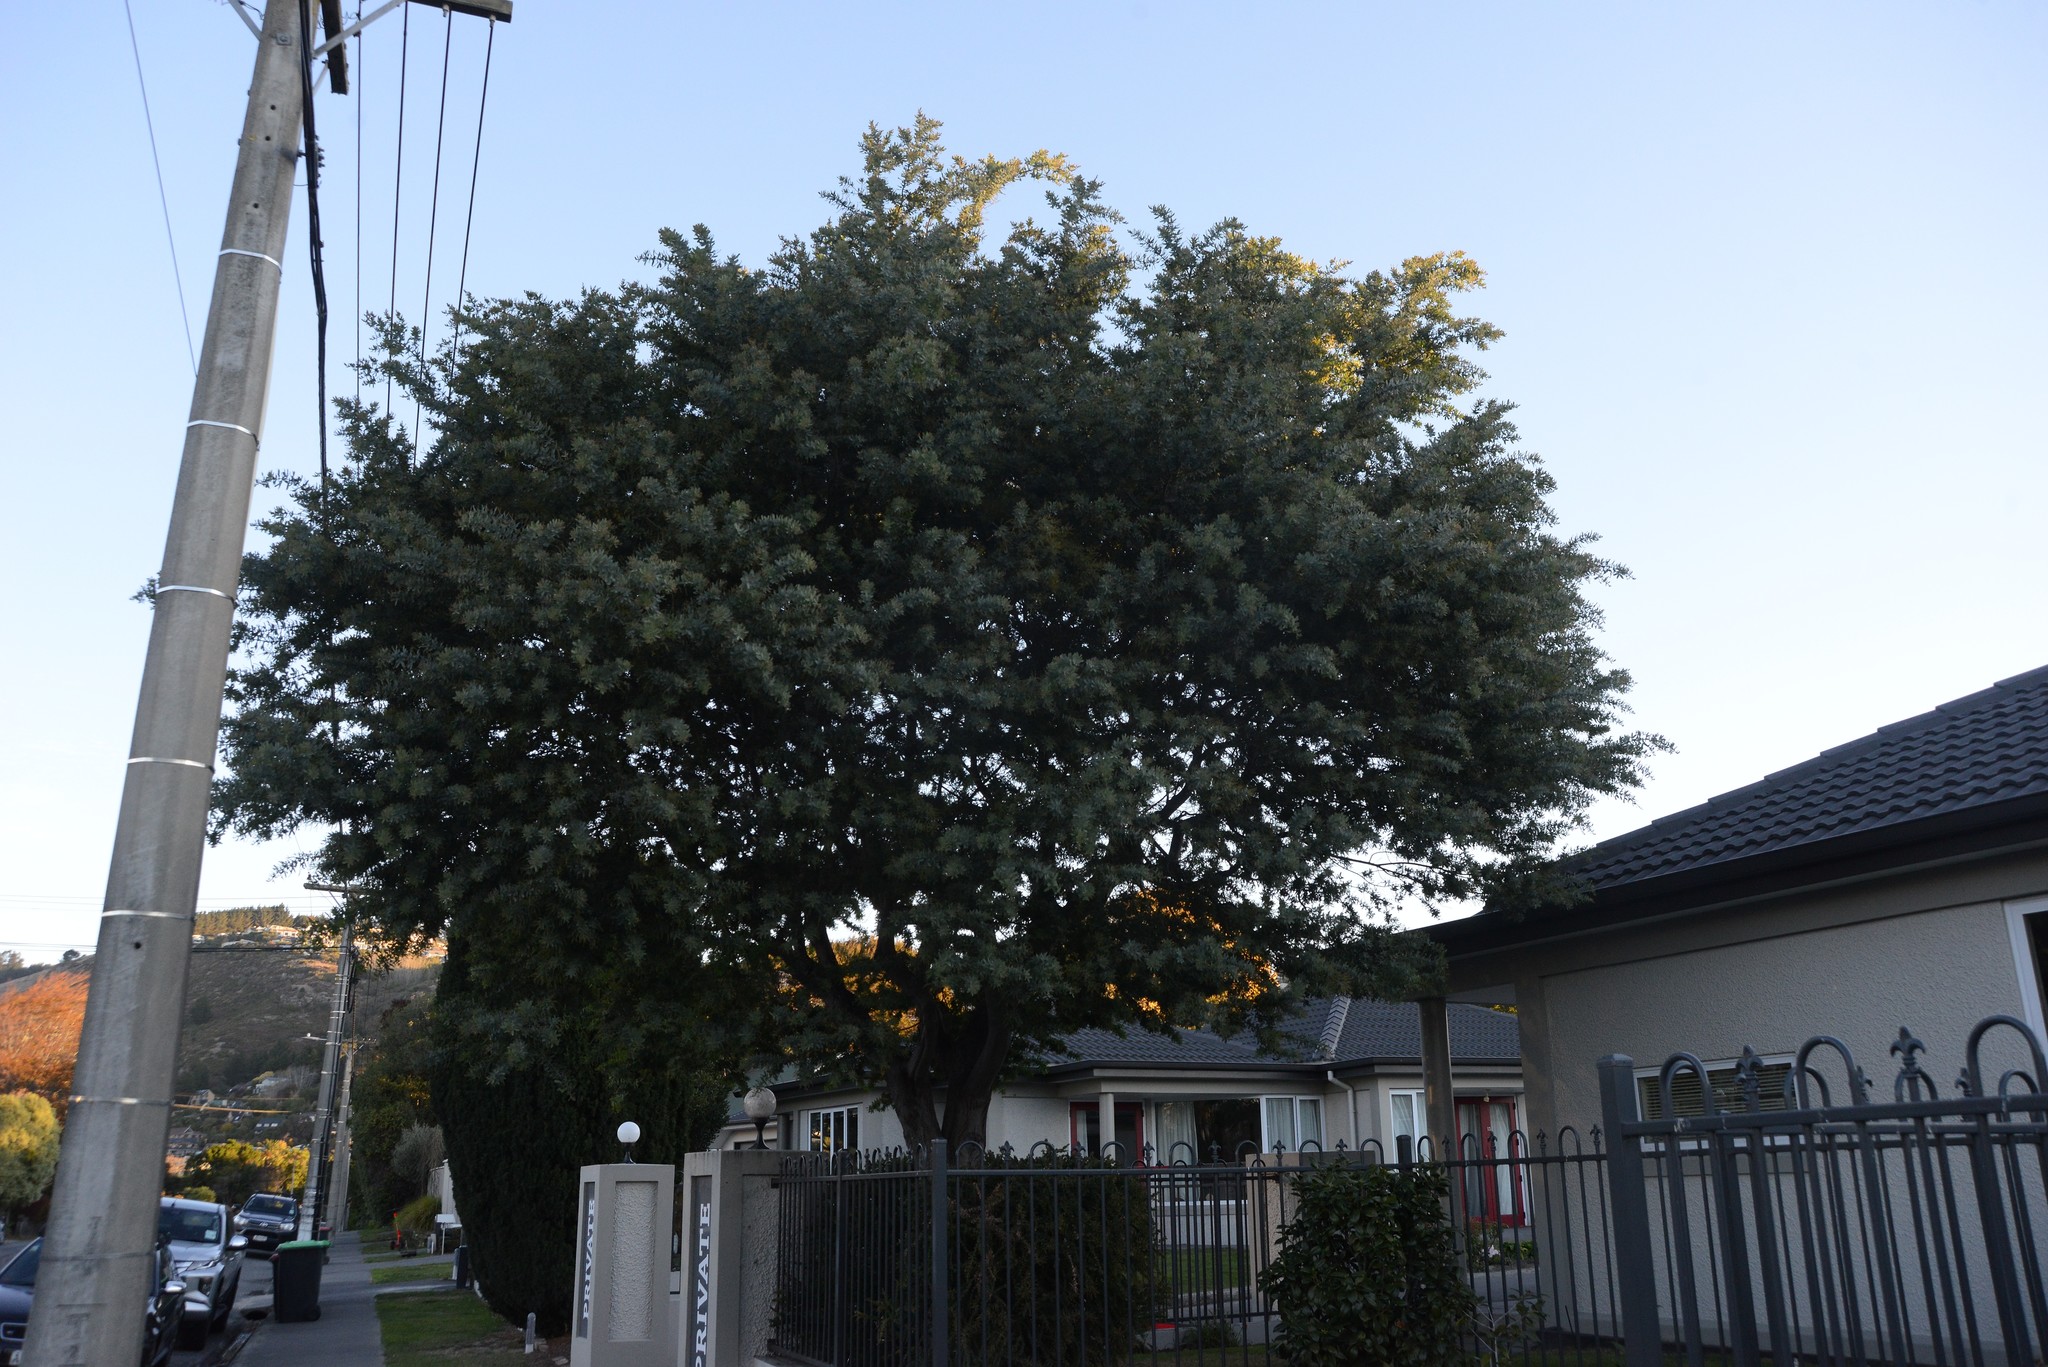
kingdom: Plantae
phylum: Tracheophyta
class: Magnoliopsida
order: Fabales
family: Fabaceae
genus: Acacia
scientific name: Acacia baileyana
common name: Cootamundra wattle
